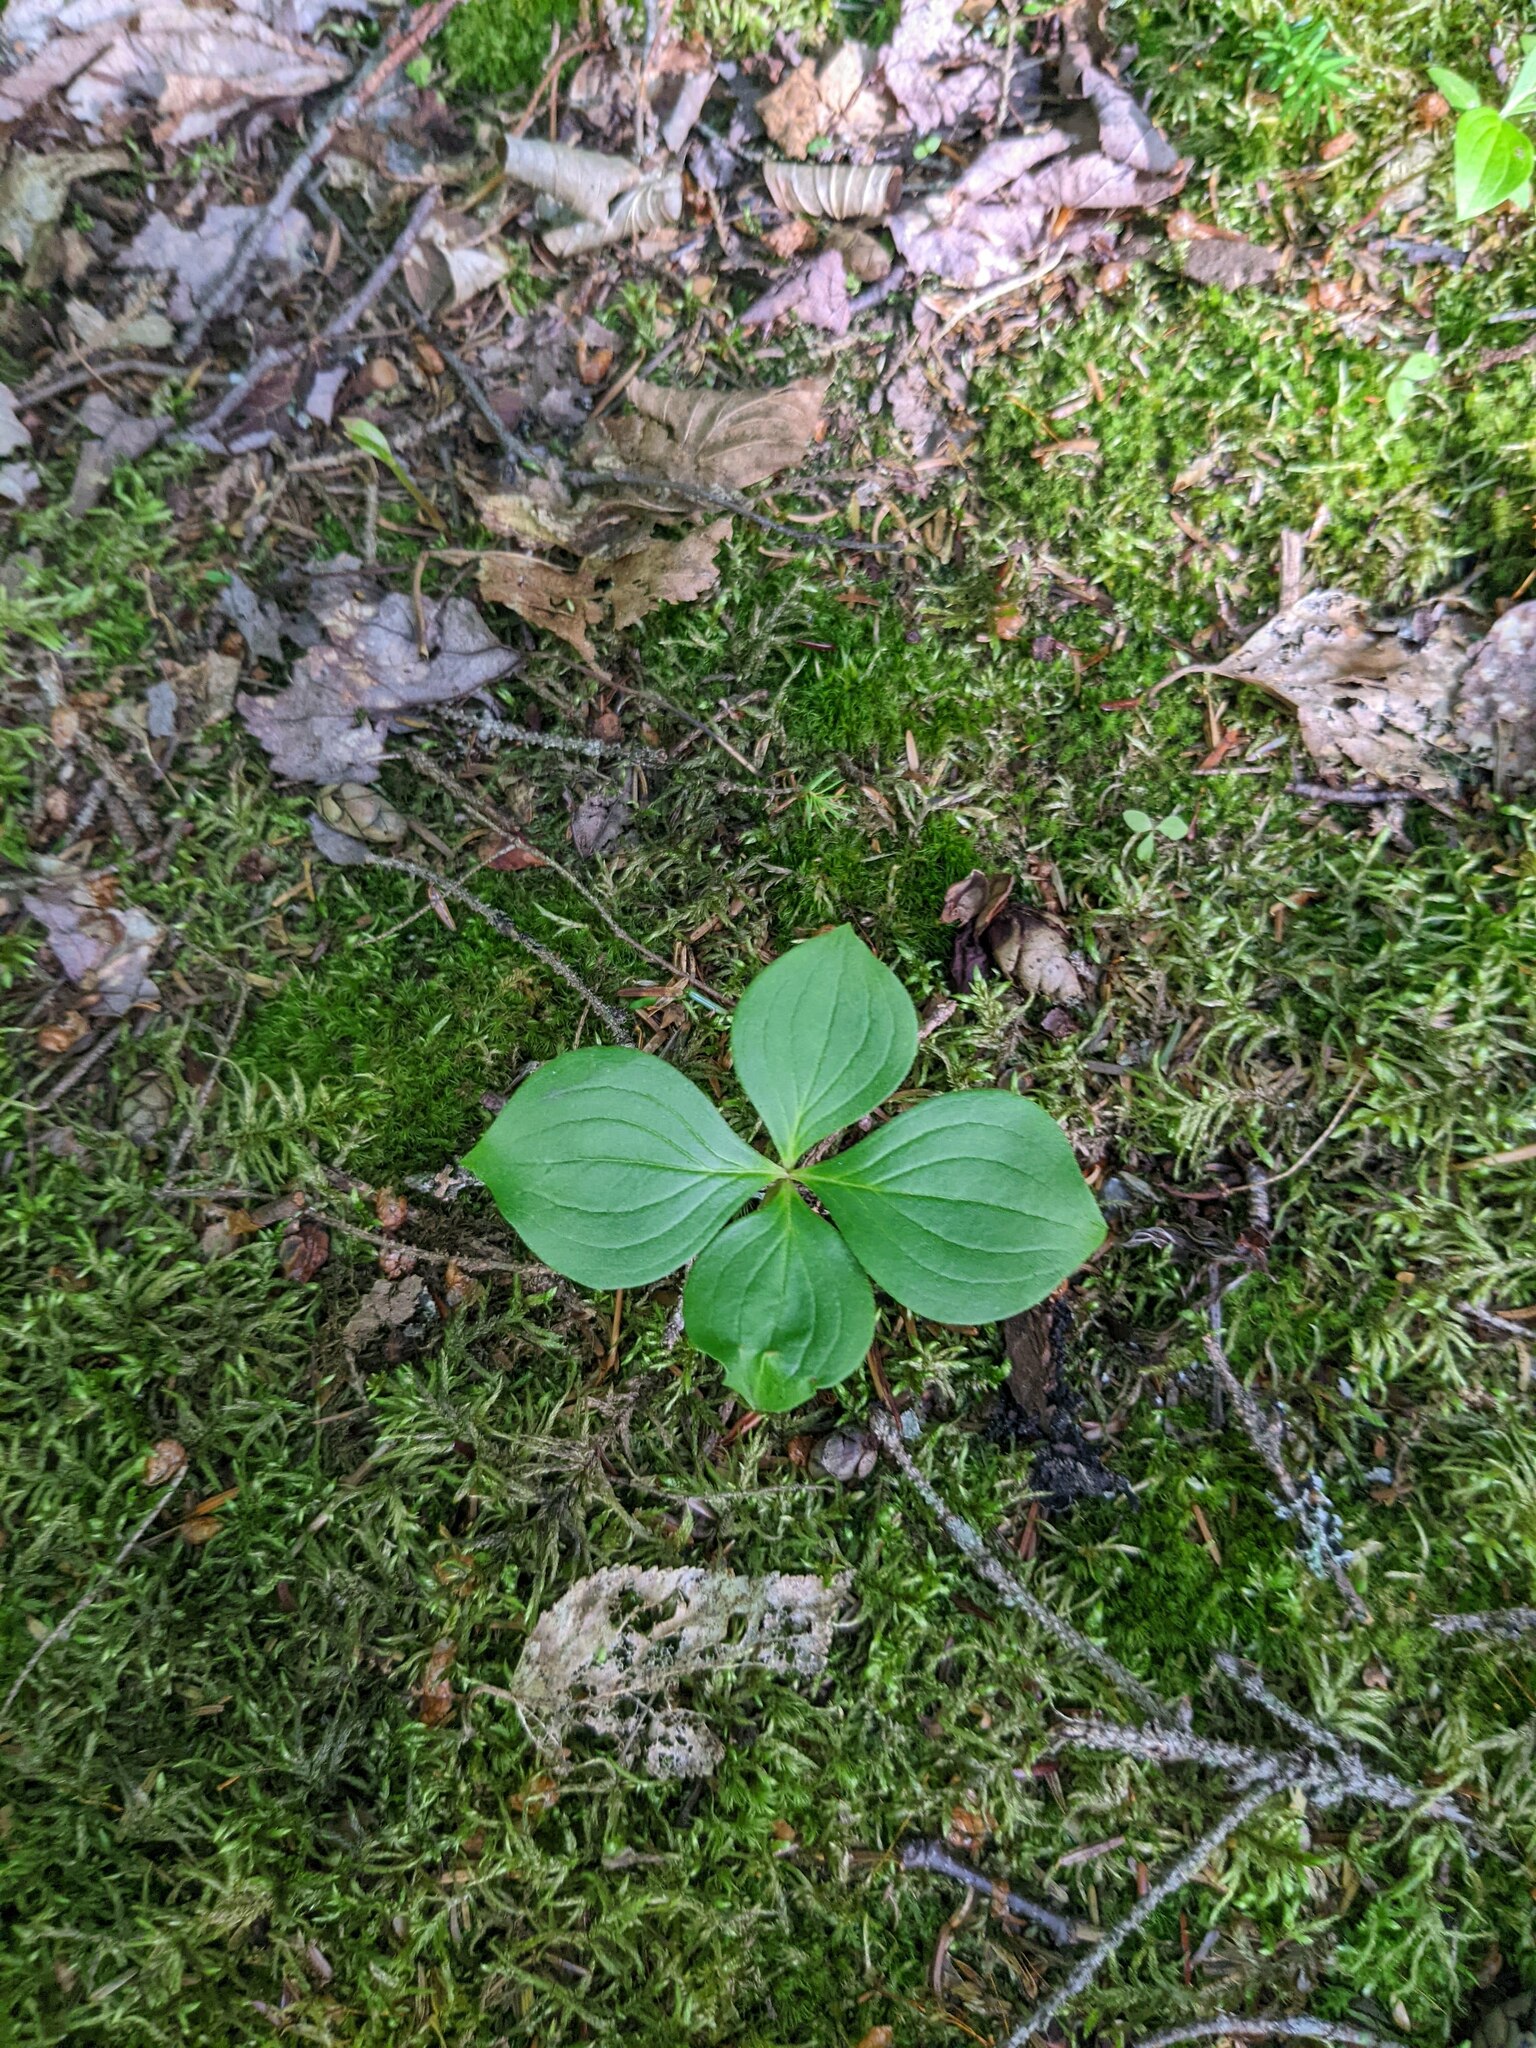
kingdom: Plantae
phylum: Tracheophyta
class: Magnoliopsida
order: Cornales
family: Cornaceae
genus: Cornus
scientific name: Cornus canadensis
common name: Creeping dogwood
